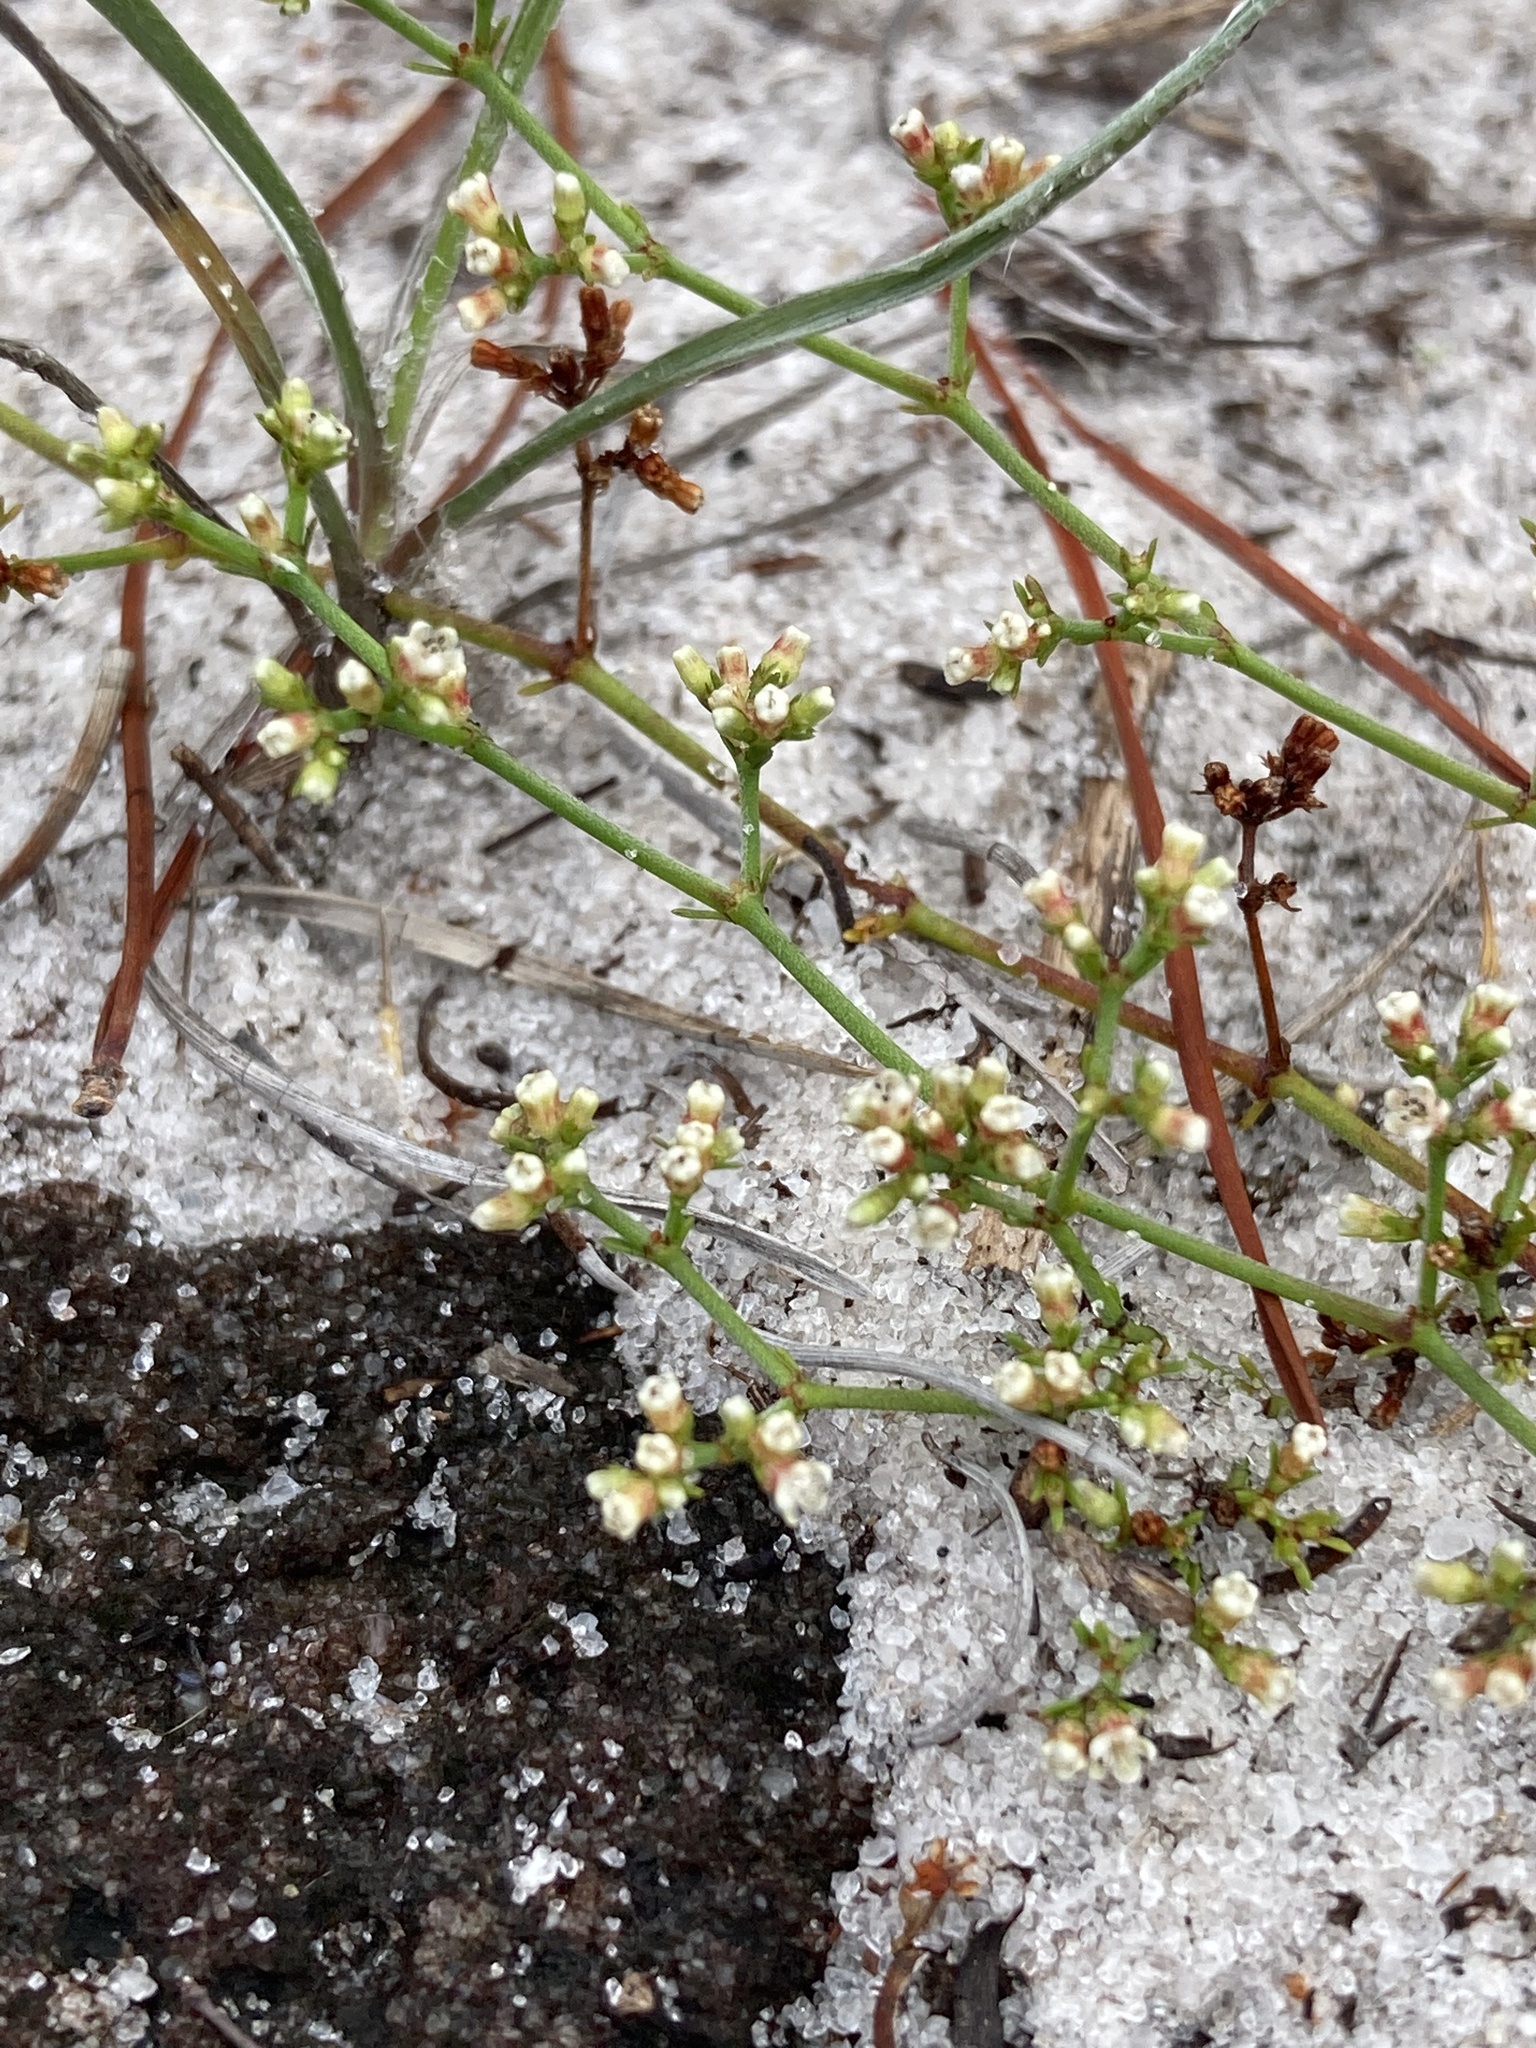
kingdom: Plantae
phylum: Tracheophyta
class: Magnoliopsida
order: Caryophyllales
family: Caryophyllaceae
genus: Paronychia
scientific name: Paronychia americana
